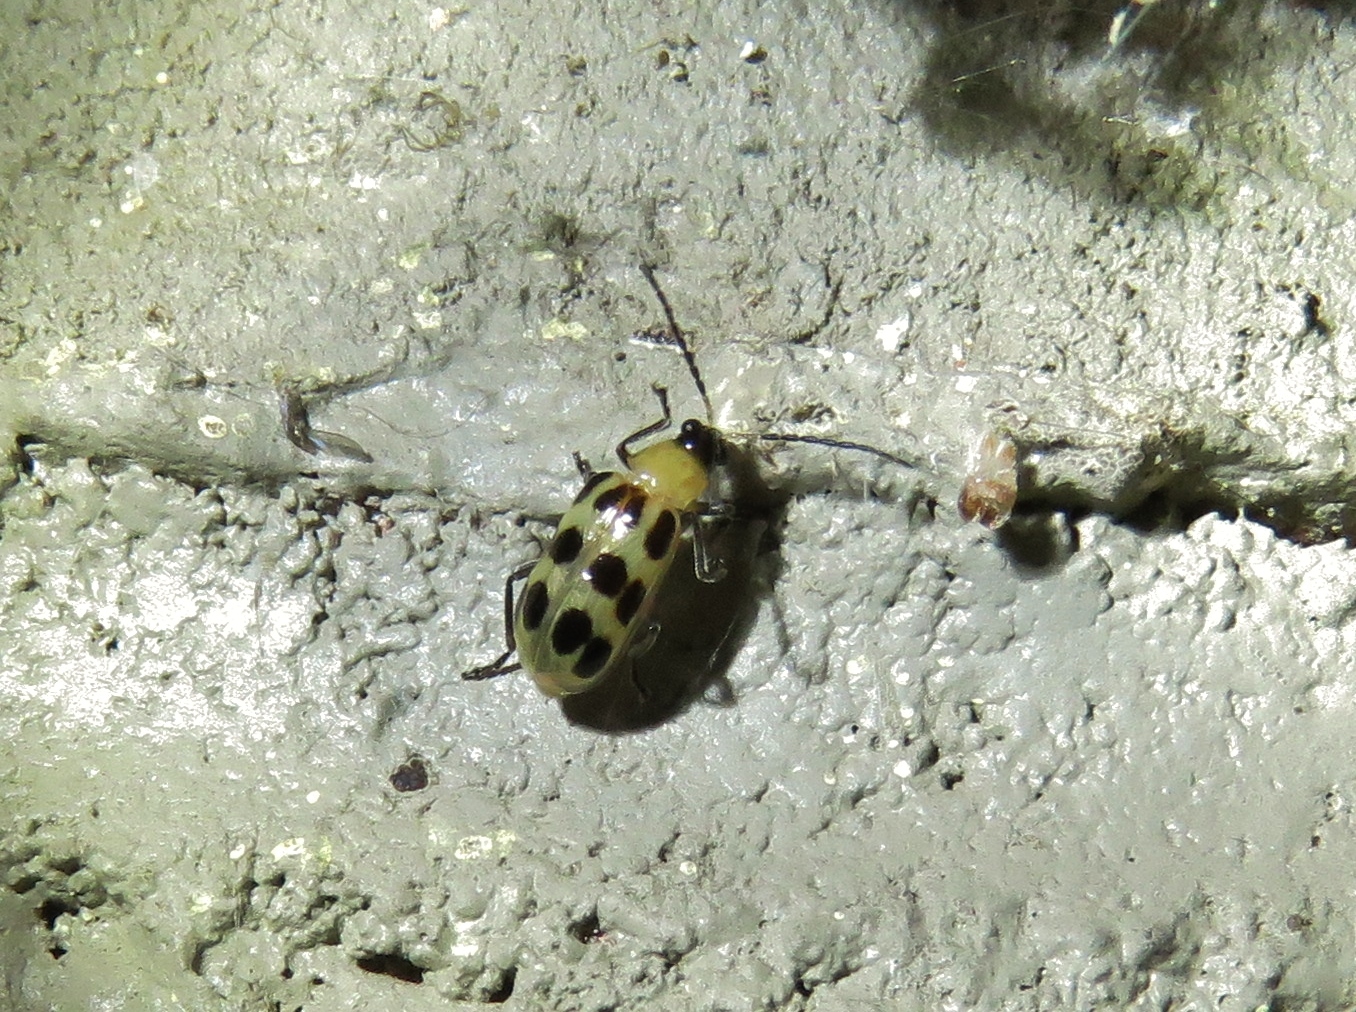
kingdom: Animalia
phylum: Arthropoda
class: Insecta
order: Coleoptera
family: Chrysomelidae
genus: Diabrotica
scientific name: Diabrotica undecimpunctata
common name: Spotted cucumber beetle
